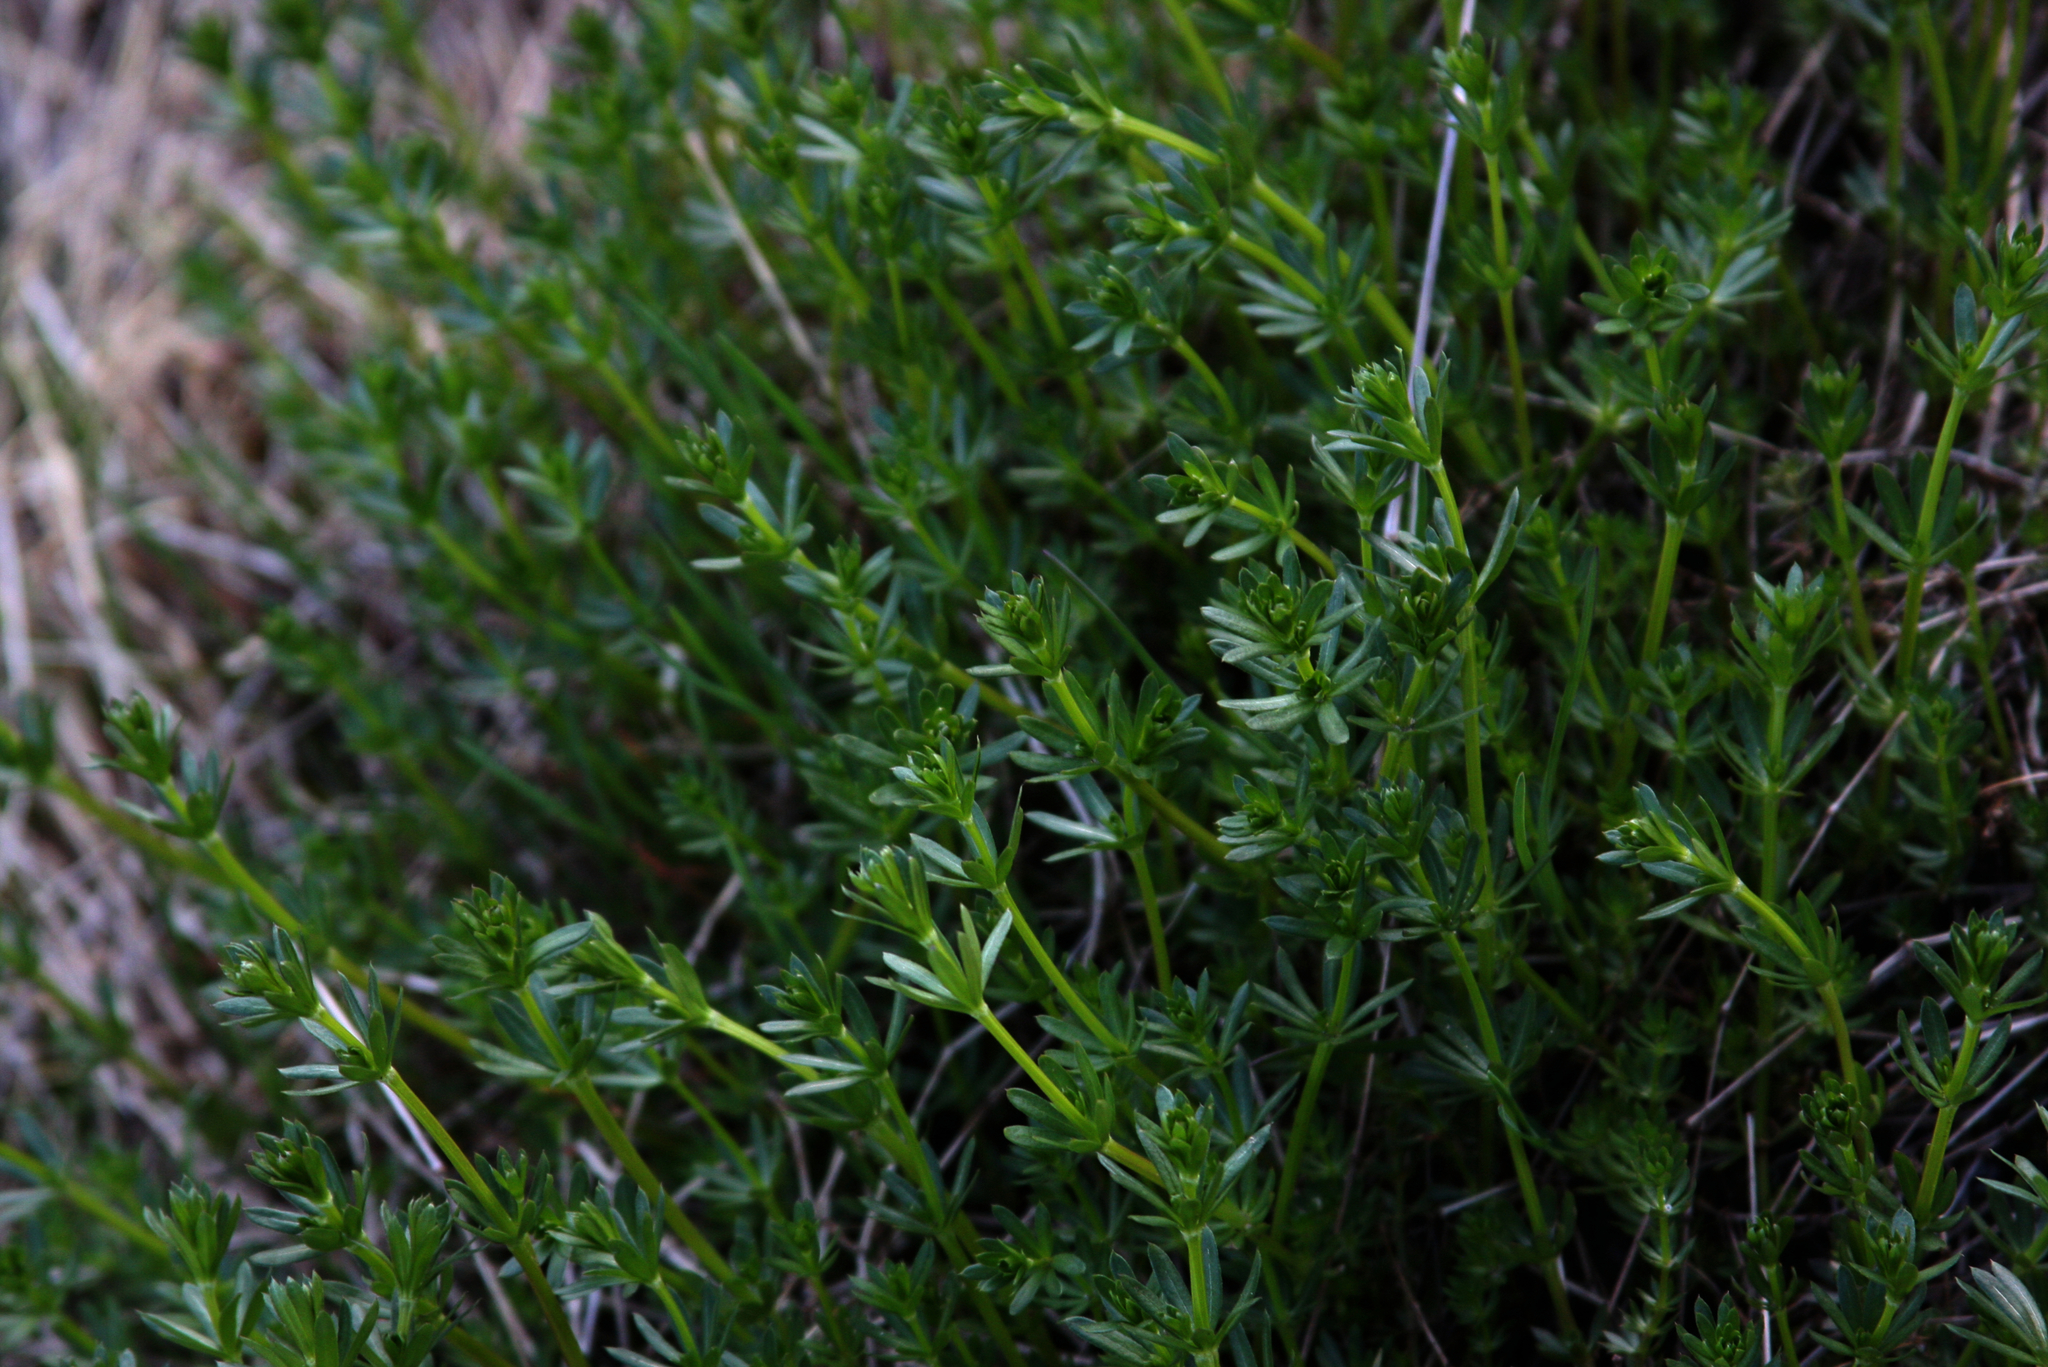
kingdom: Plantae
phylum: Tracheophyta
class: Magnoliopsida
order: Gentianales
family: Rubiaceae
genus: Galium
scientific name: Galium mollugo
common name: Hedge bedstraw
